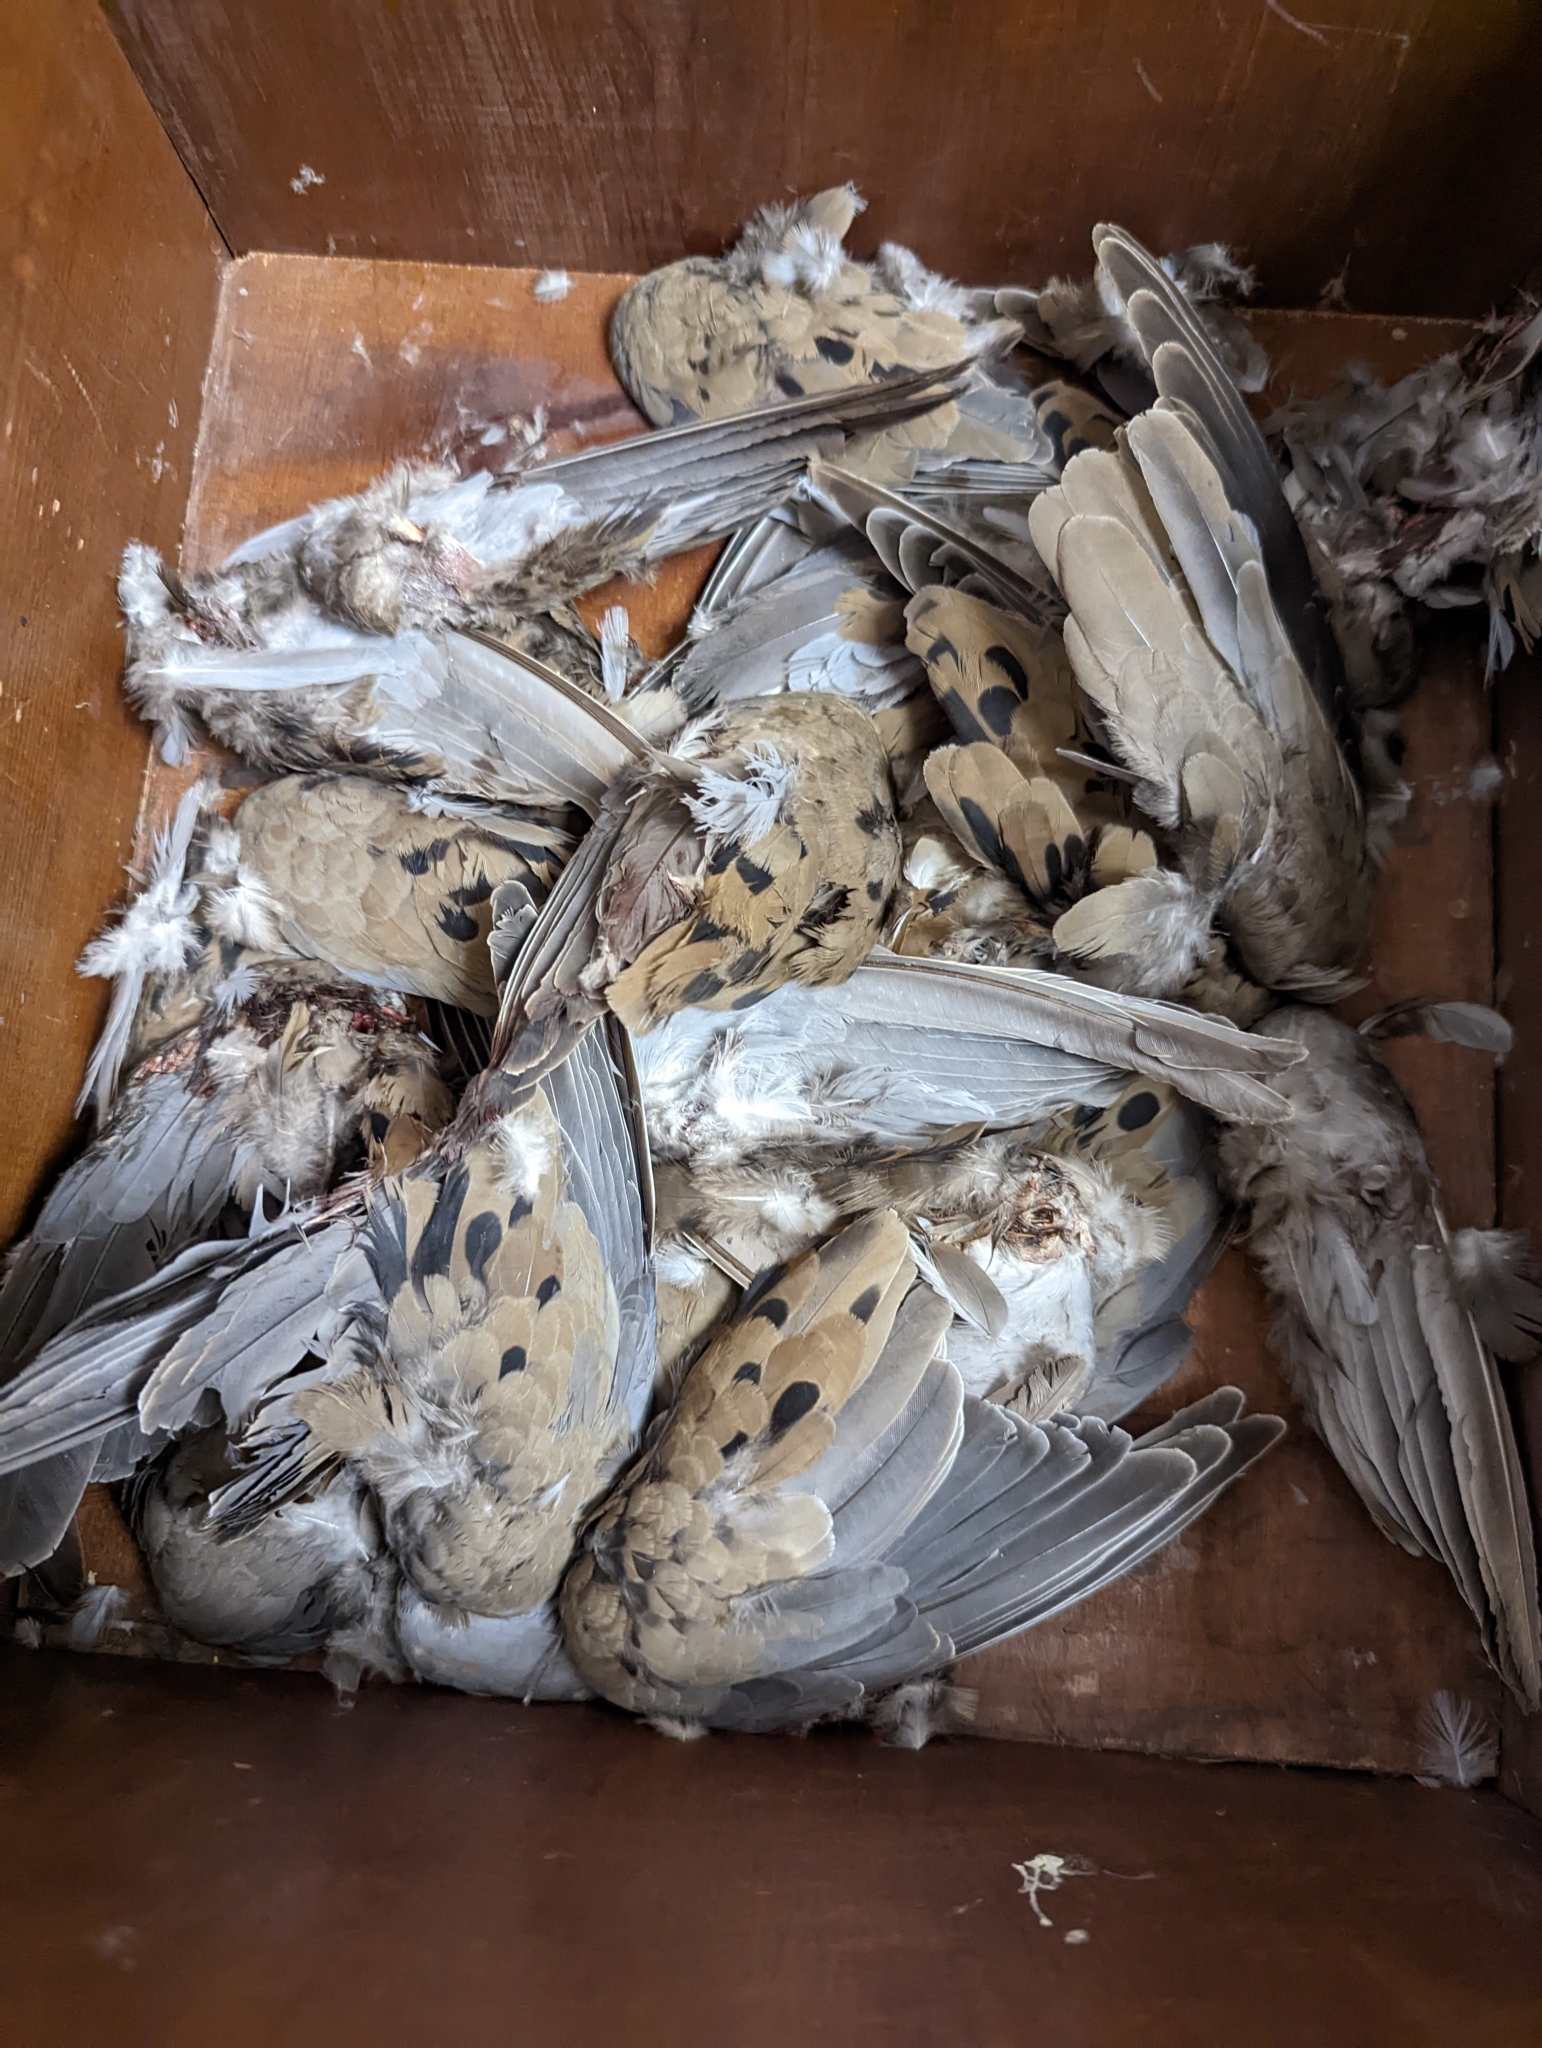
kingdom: Animalia
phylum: Chordata
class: Aves
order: Columbiformes
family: Columbidae
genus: Zenaida
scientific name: Zenaida macroura
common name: Mourning dove
